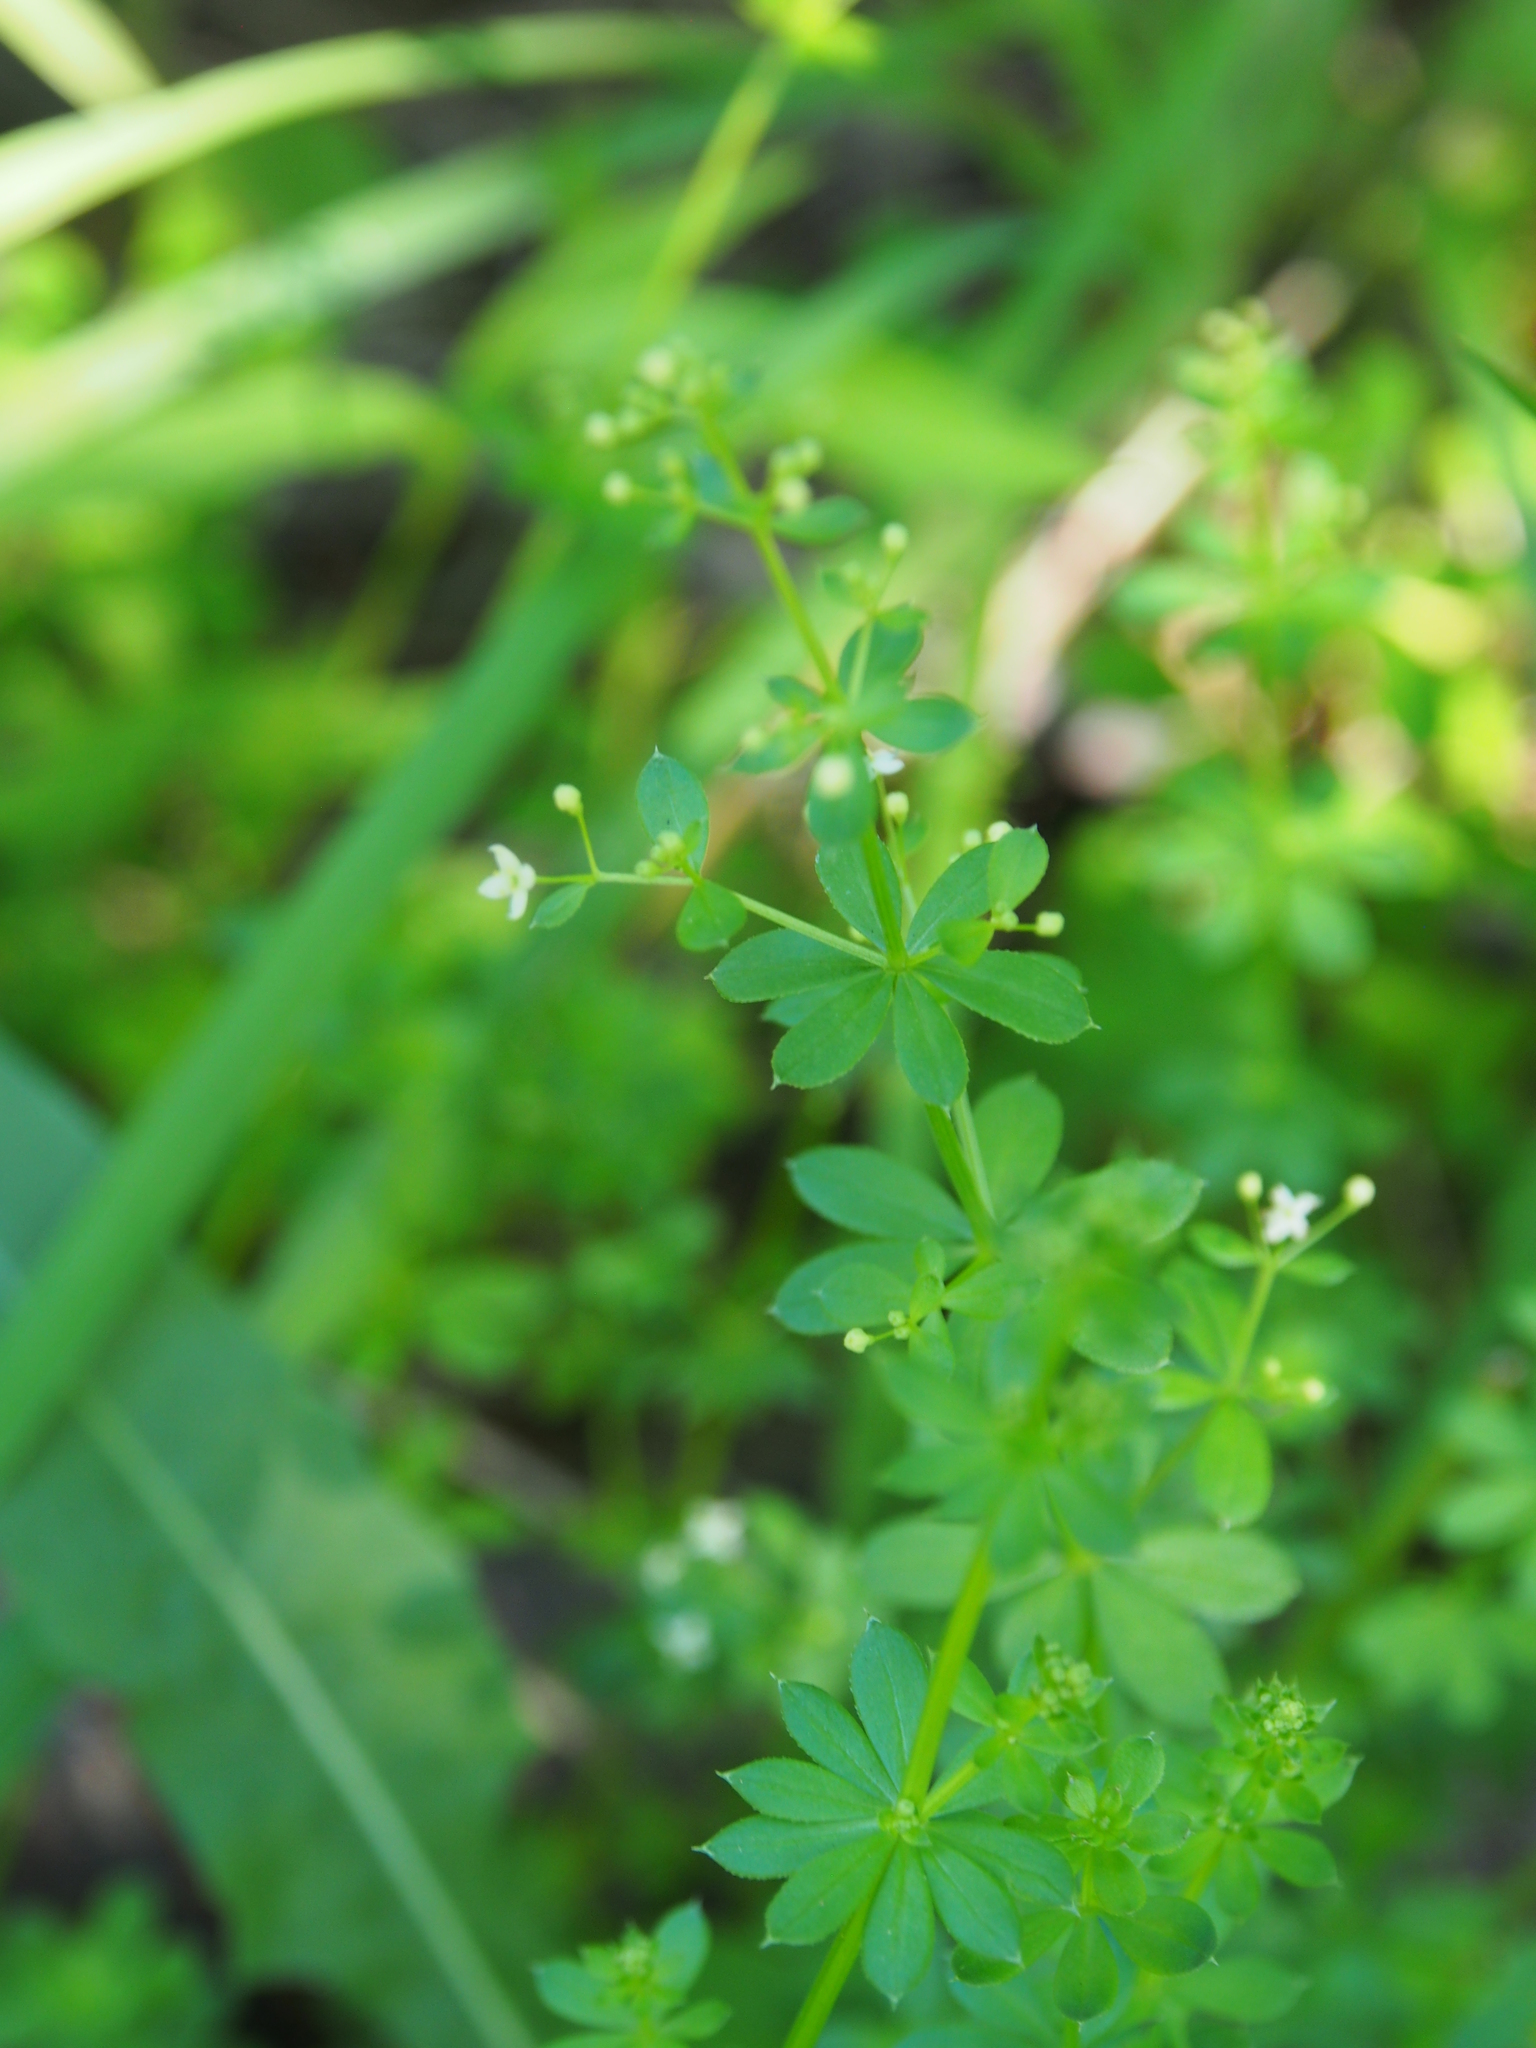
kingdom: Plantae
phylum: Tracheophyta
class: Magnoliopsida
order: Gentianales
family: Rubiaceae
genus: Galium
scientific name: Galium mollugo
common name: Hedge bedstraw
